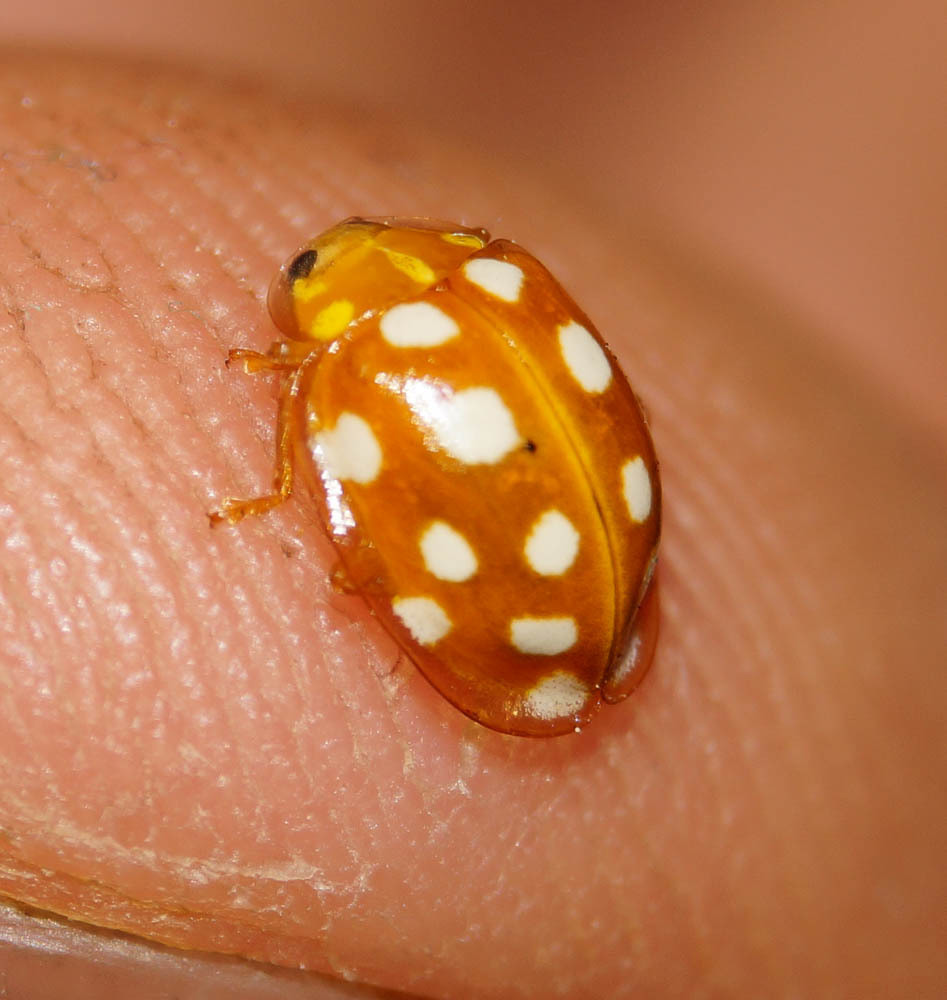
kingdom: Animalia
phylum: Arthropoda
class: Insecta
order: Coleoptera
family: Coccinellidae
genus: Halyzia
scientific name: Halyzia sedecimguttata
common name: Orange ladybird
